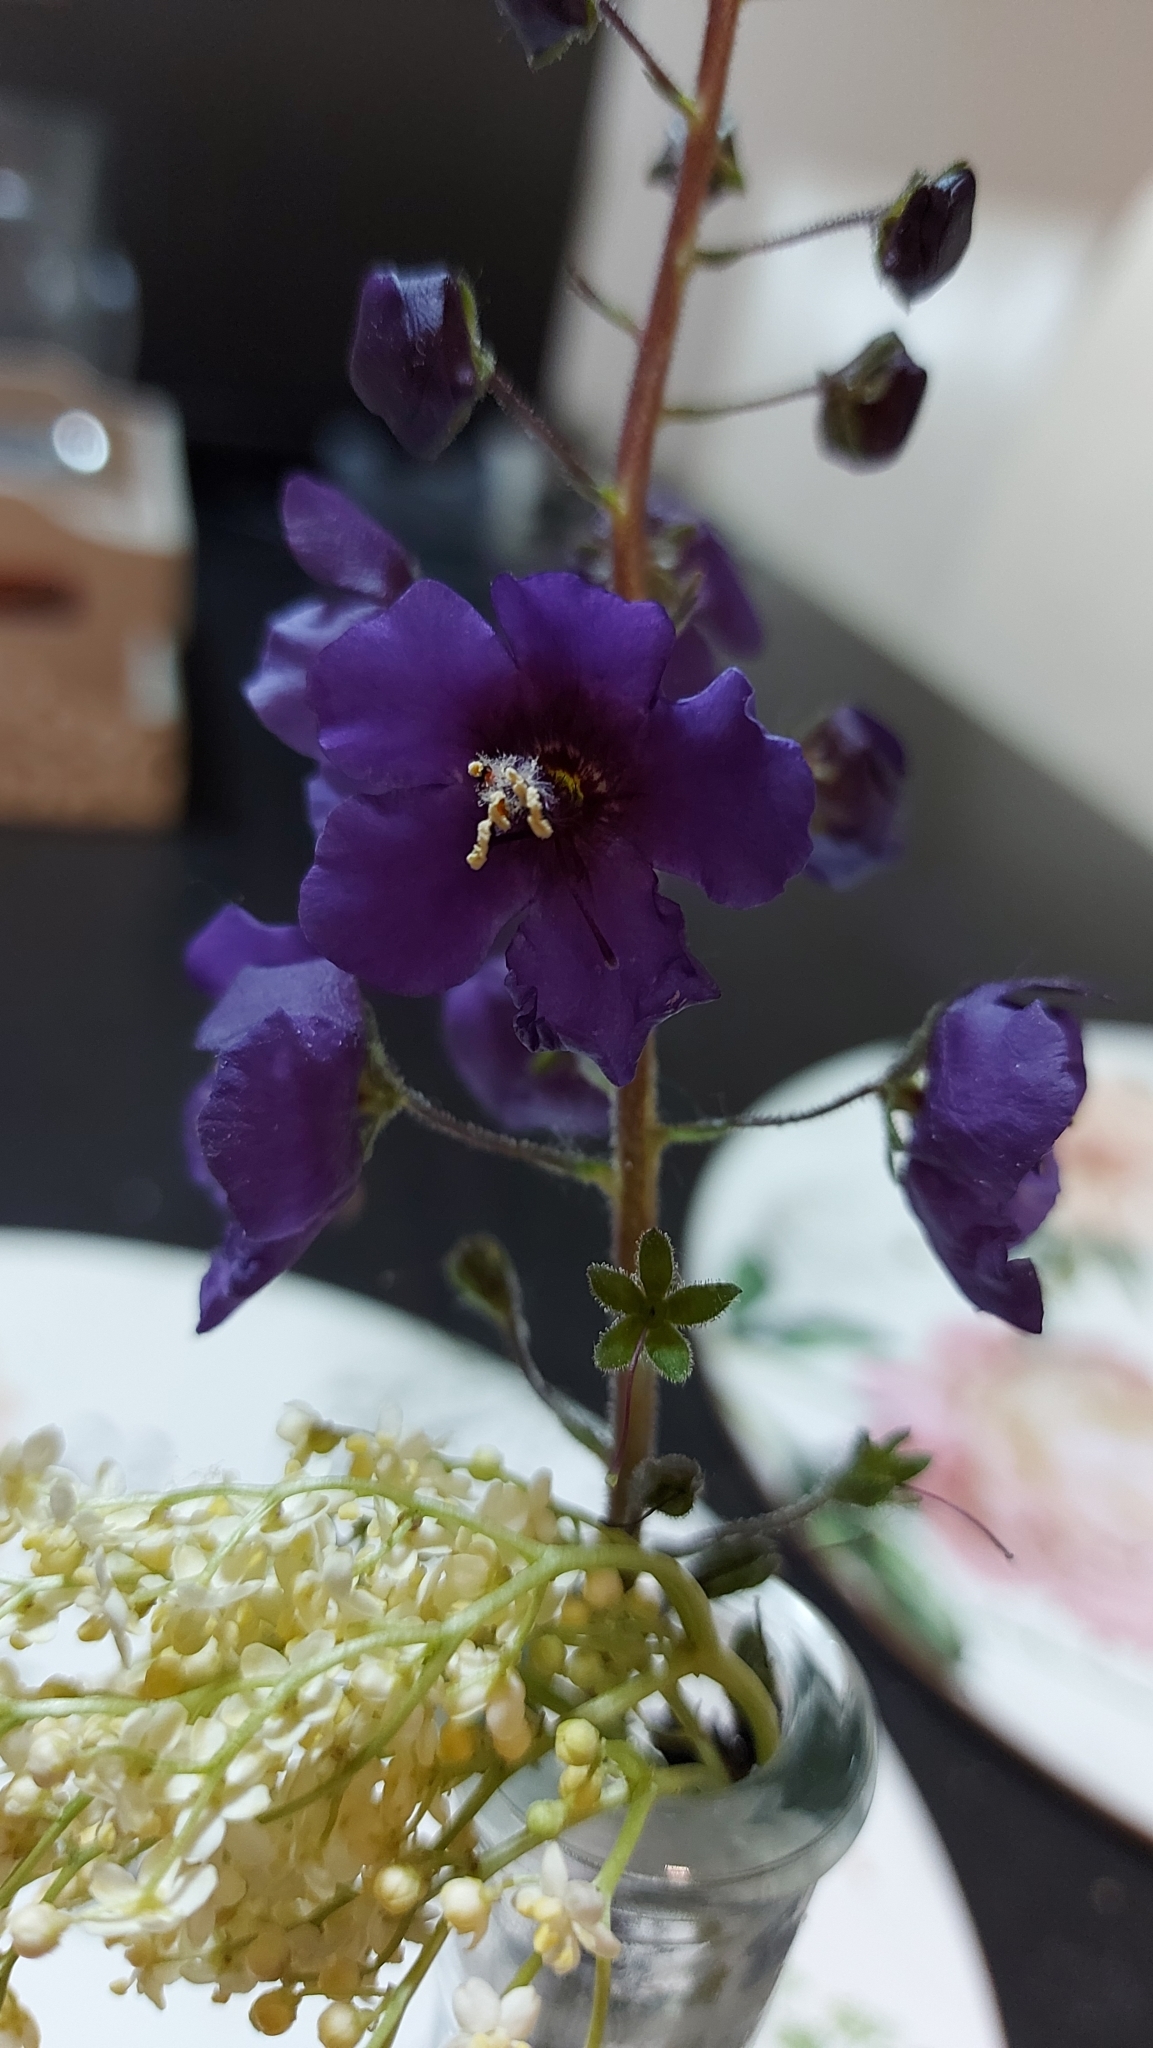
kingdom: Plantae
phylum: Tracheophyta
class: Magnoliopsida
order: Lamiales
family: Scrophulariaceae
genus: Verbascum
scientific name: Verbascum phoeniceum
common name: Purple mullein
